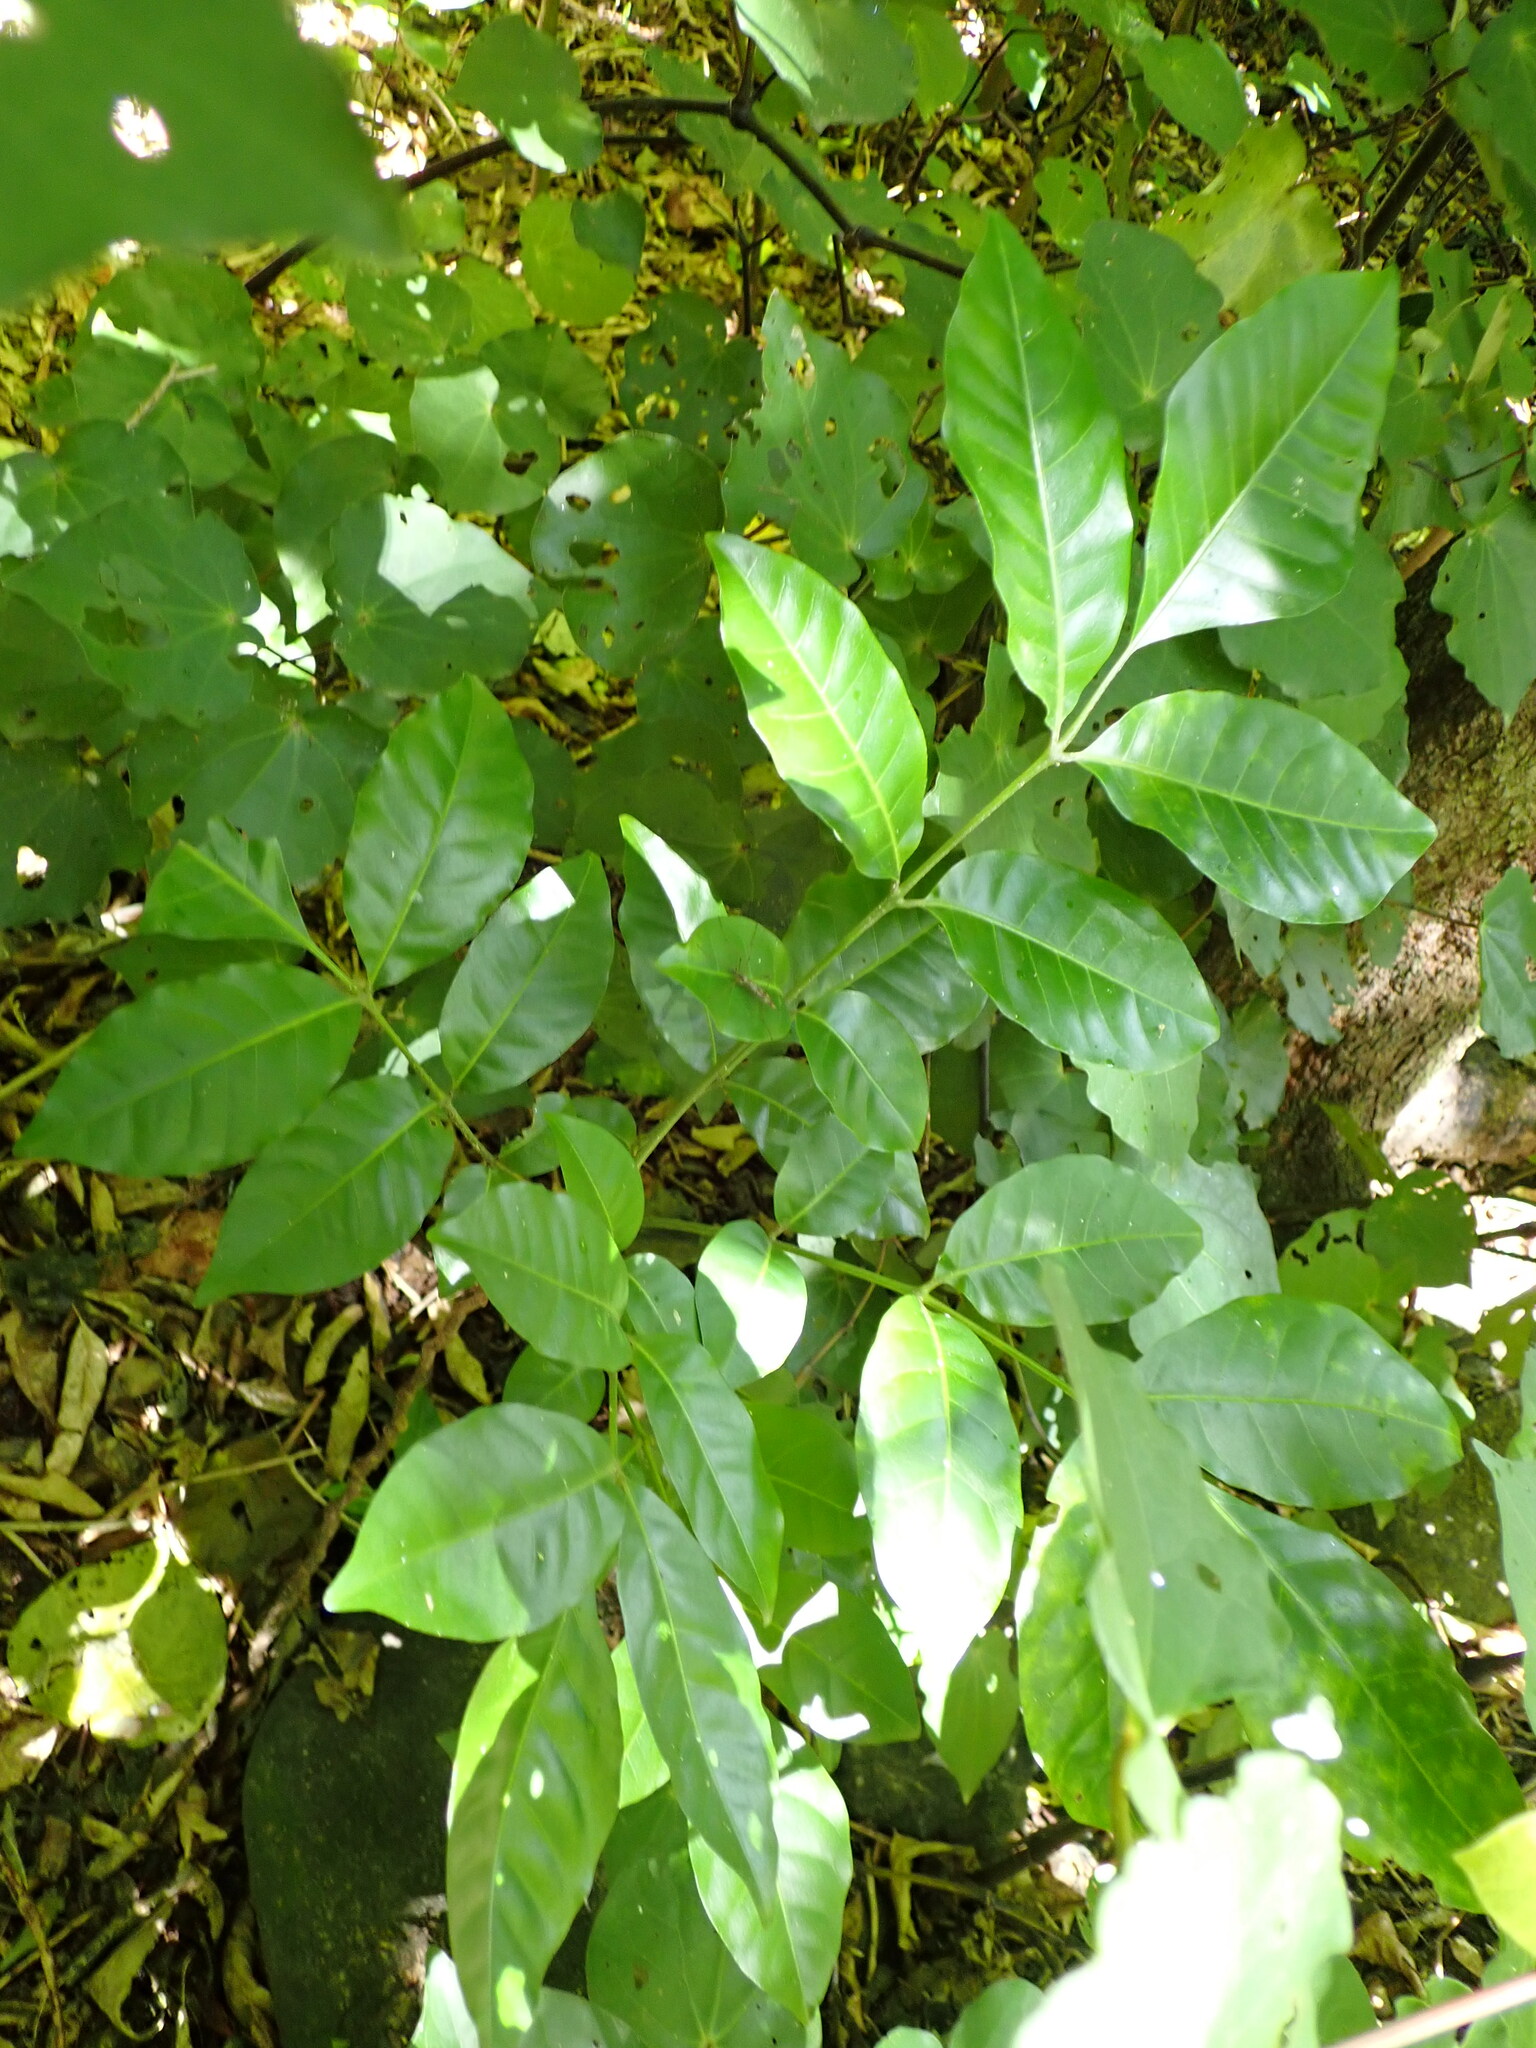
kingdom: Plantae
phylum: Tracheophyta
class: Magnoliopsida
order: Sapindales
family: Meliaceae
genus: Didymocheton
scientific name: Didymocheton spectabilis
